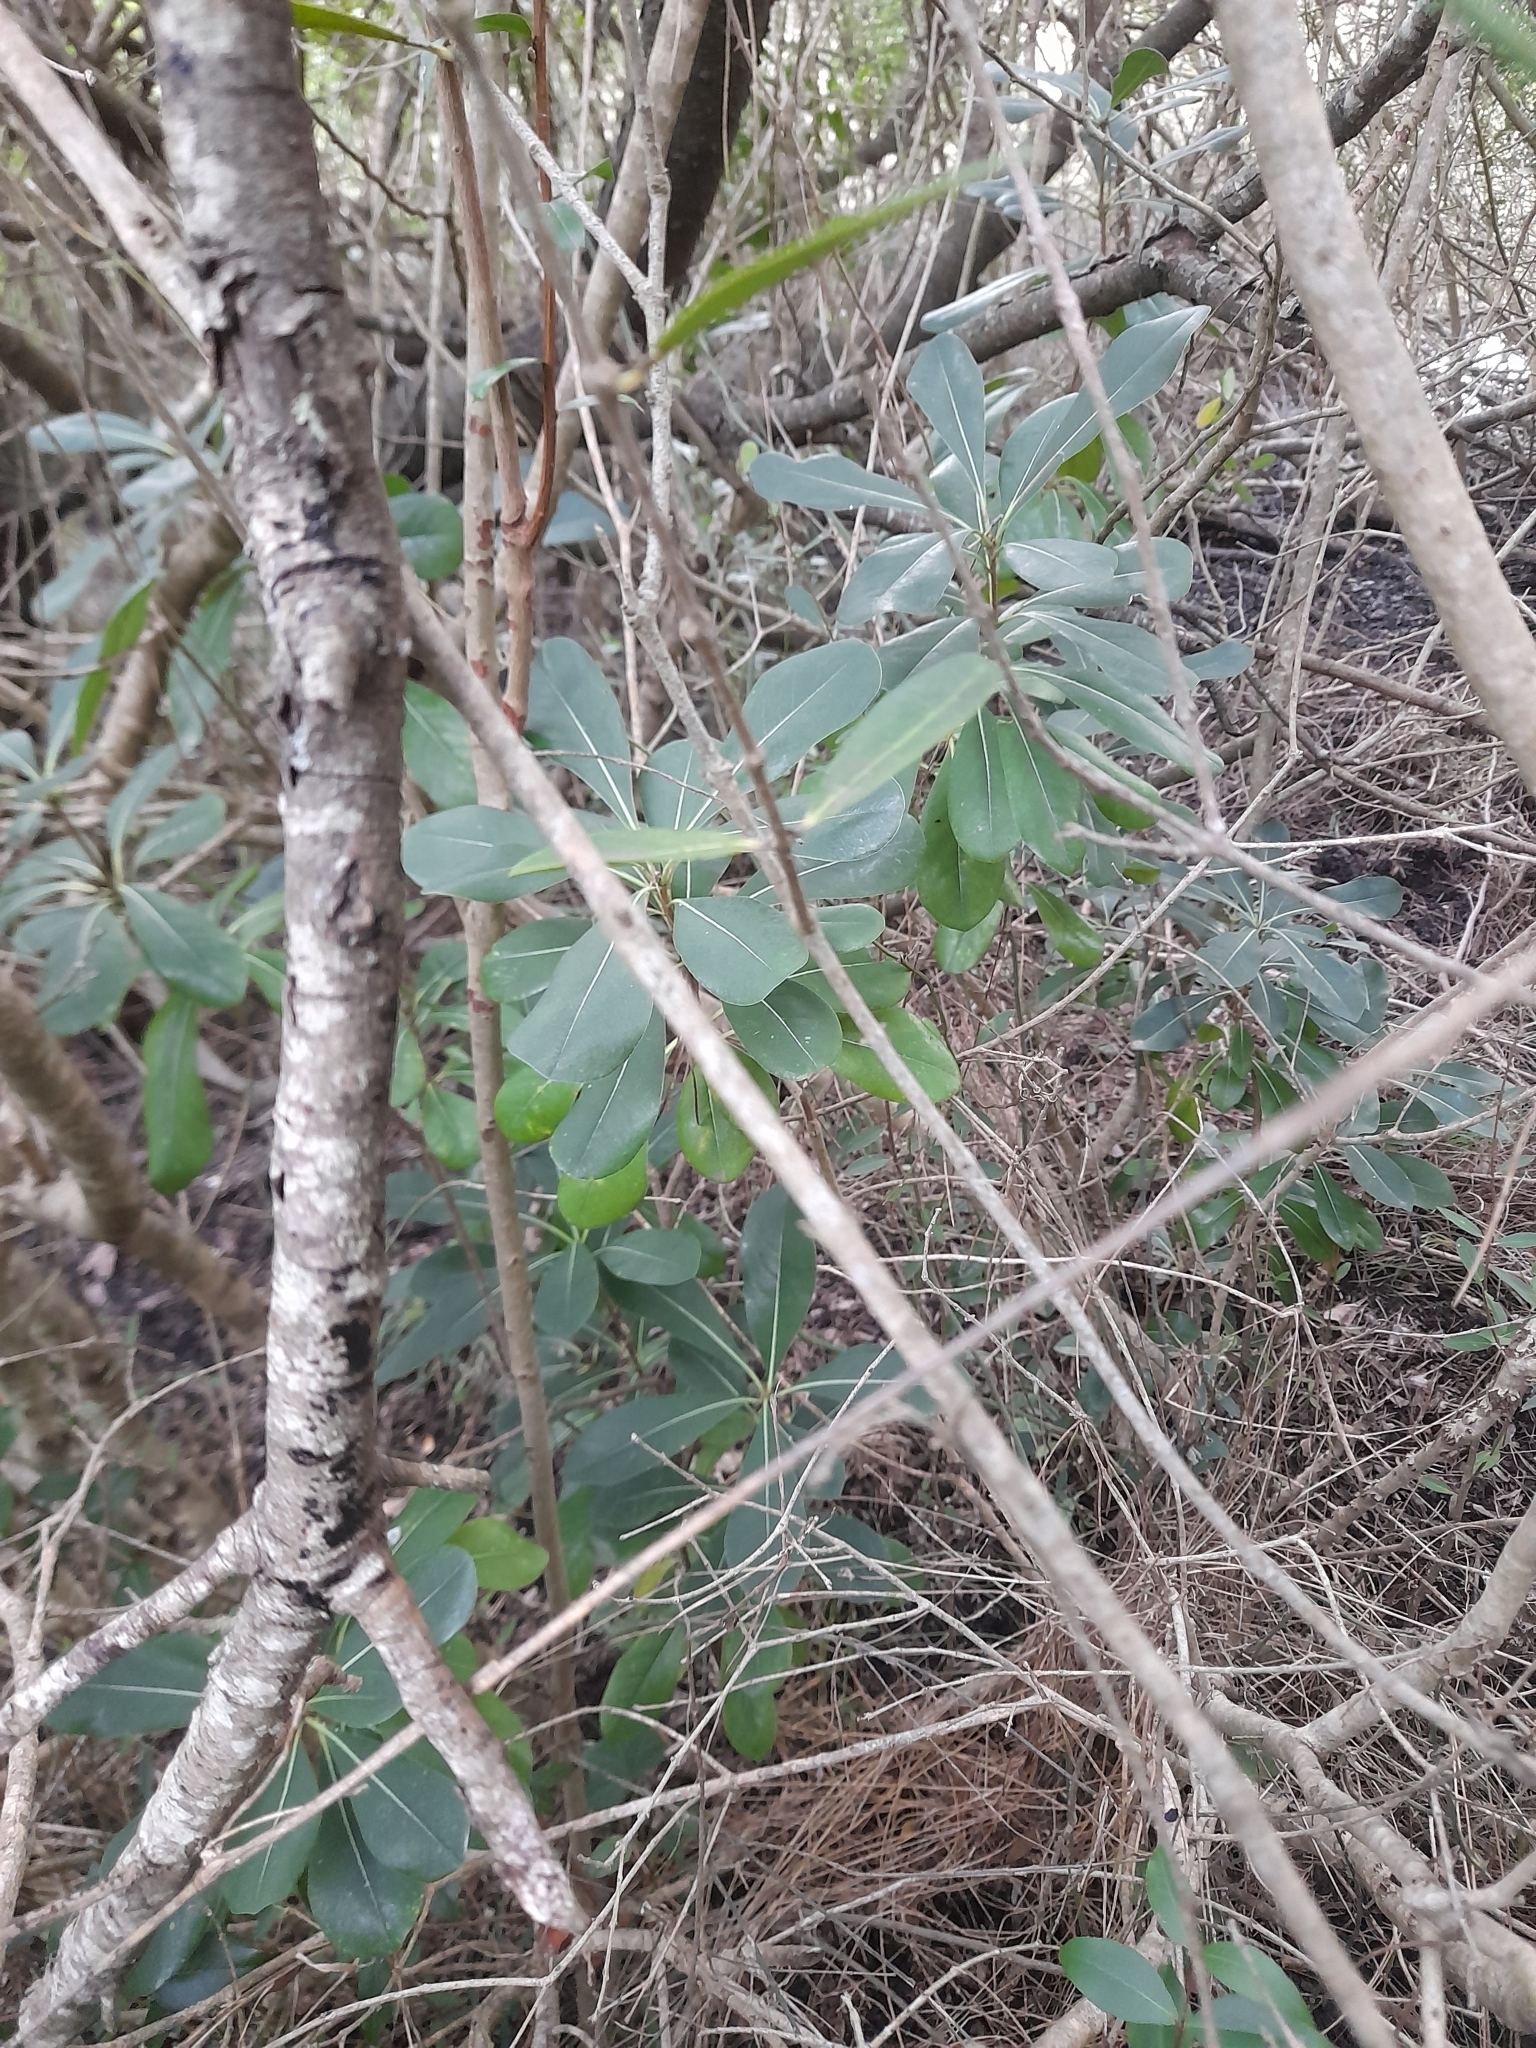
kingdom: Plantae
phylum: Tracheophyta
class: Magnoliopsida
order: Apiales
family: Pittosporaceae
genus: Pittosporum
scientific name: Pittosporum tobira
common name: Japanese cheesewood
